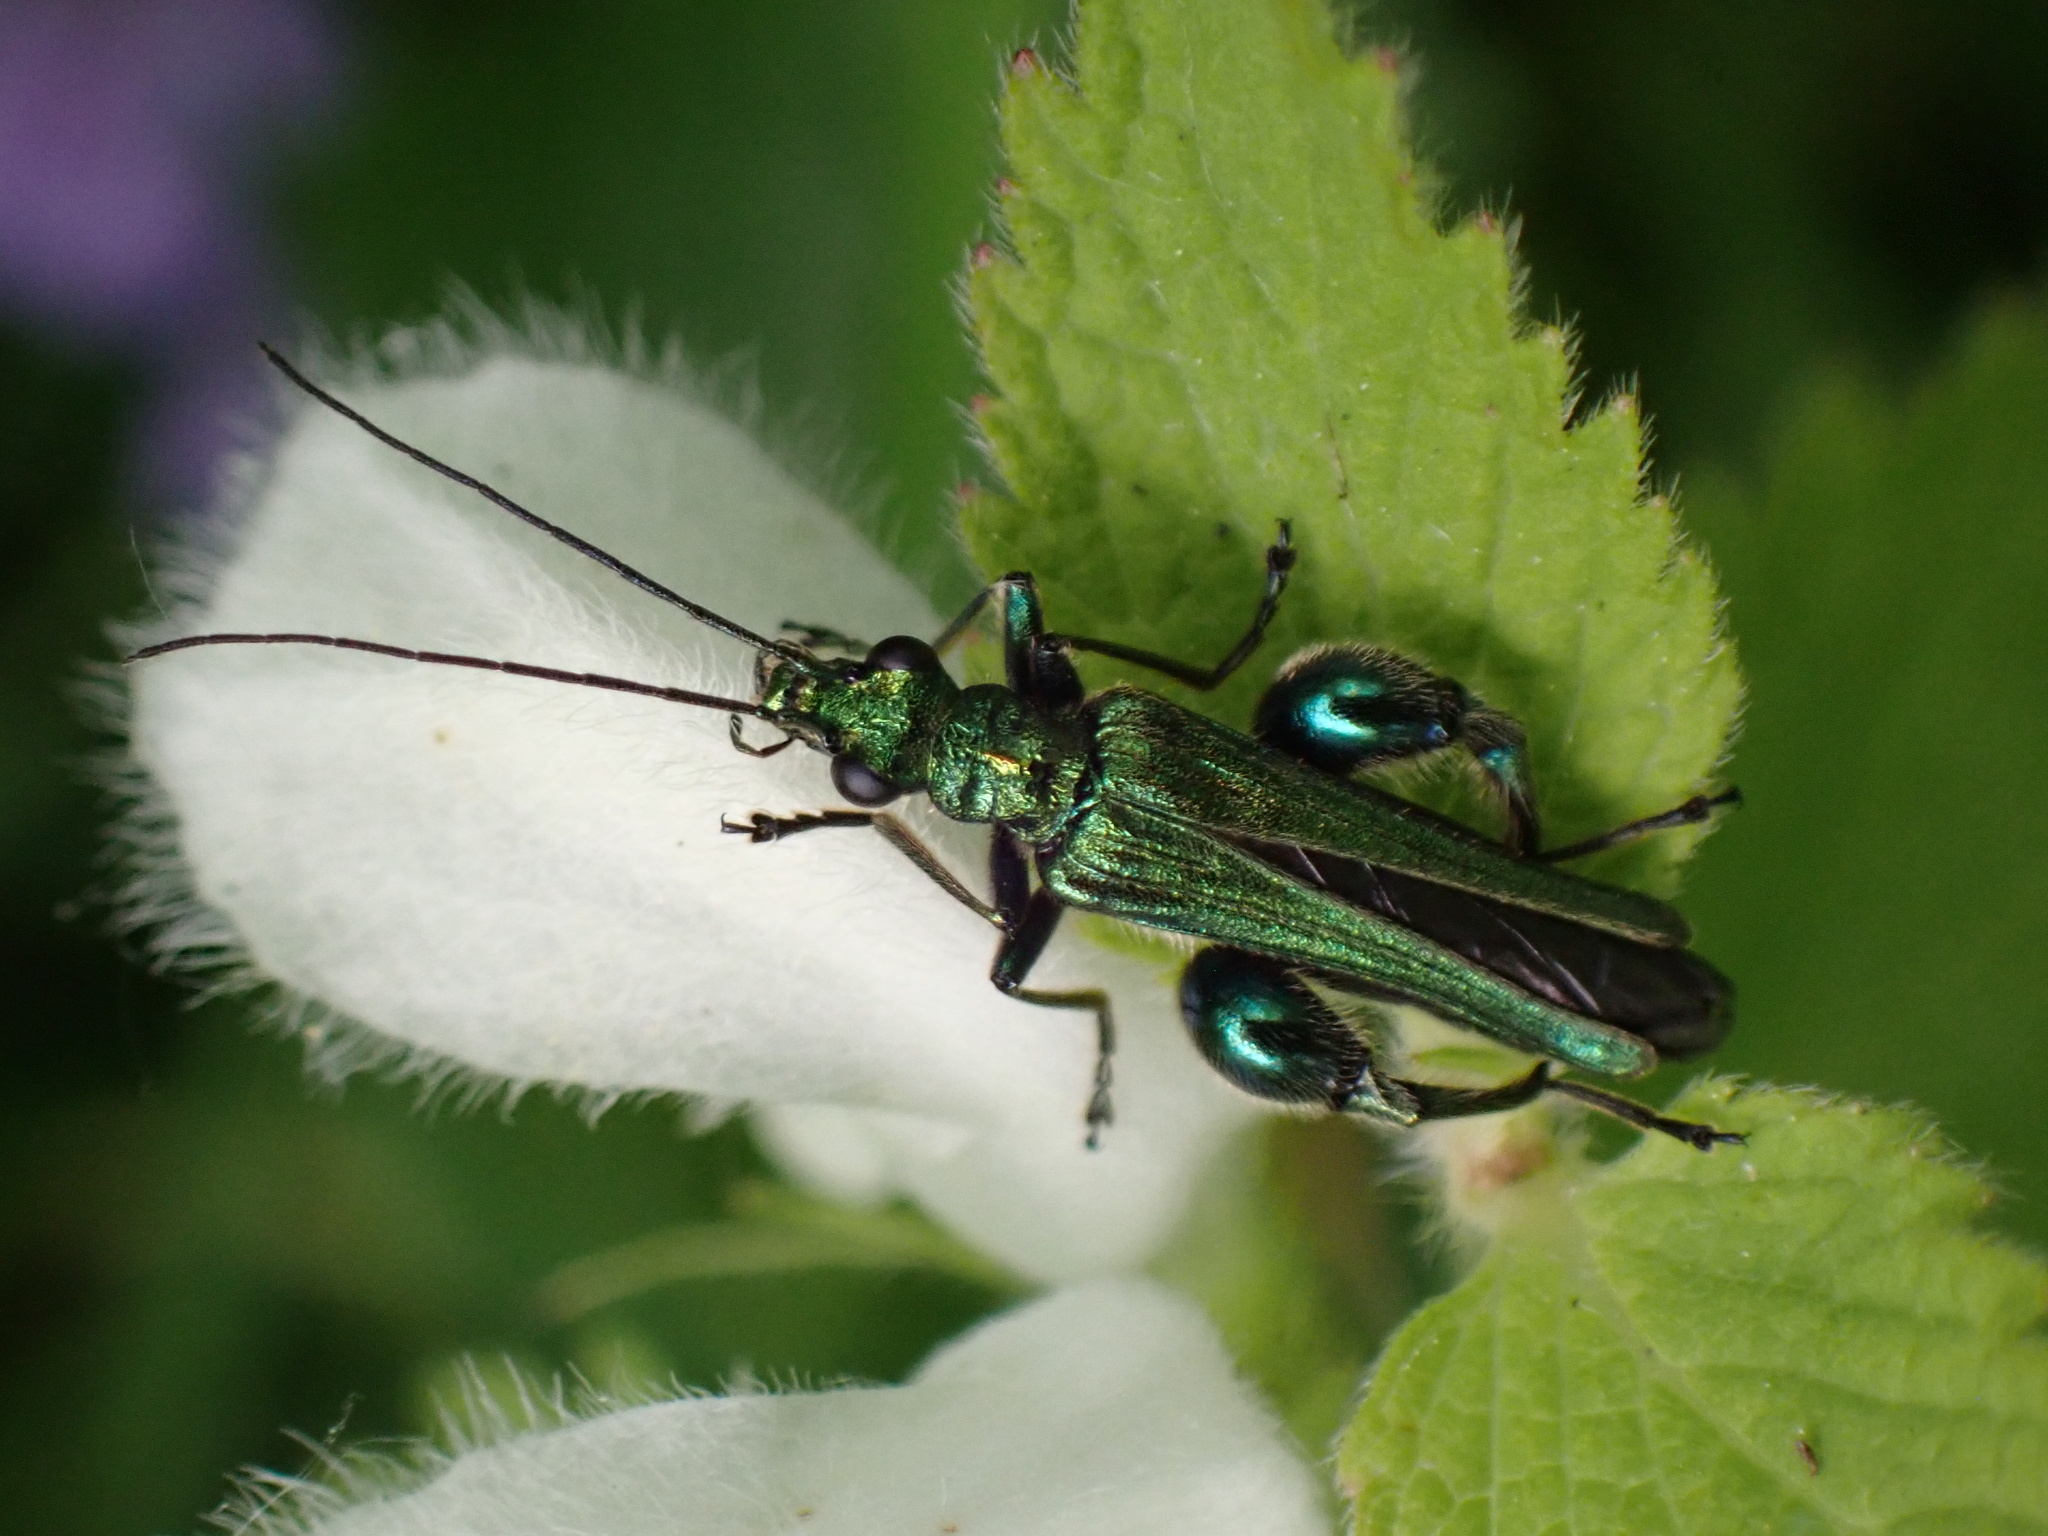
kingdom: Animalia
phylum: Arthropoda
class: Insecta
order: Coleoptera
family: Oedemeridae
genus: Oedemera
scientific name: Oedemera nobilis
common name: Swollen-thighed beetle
